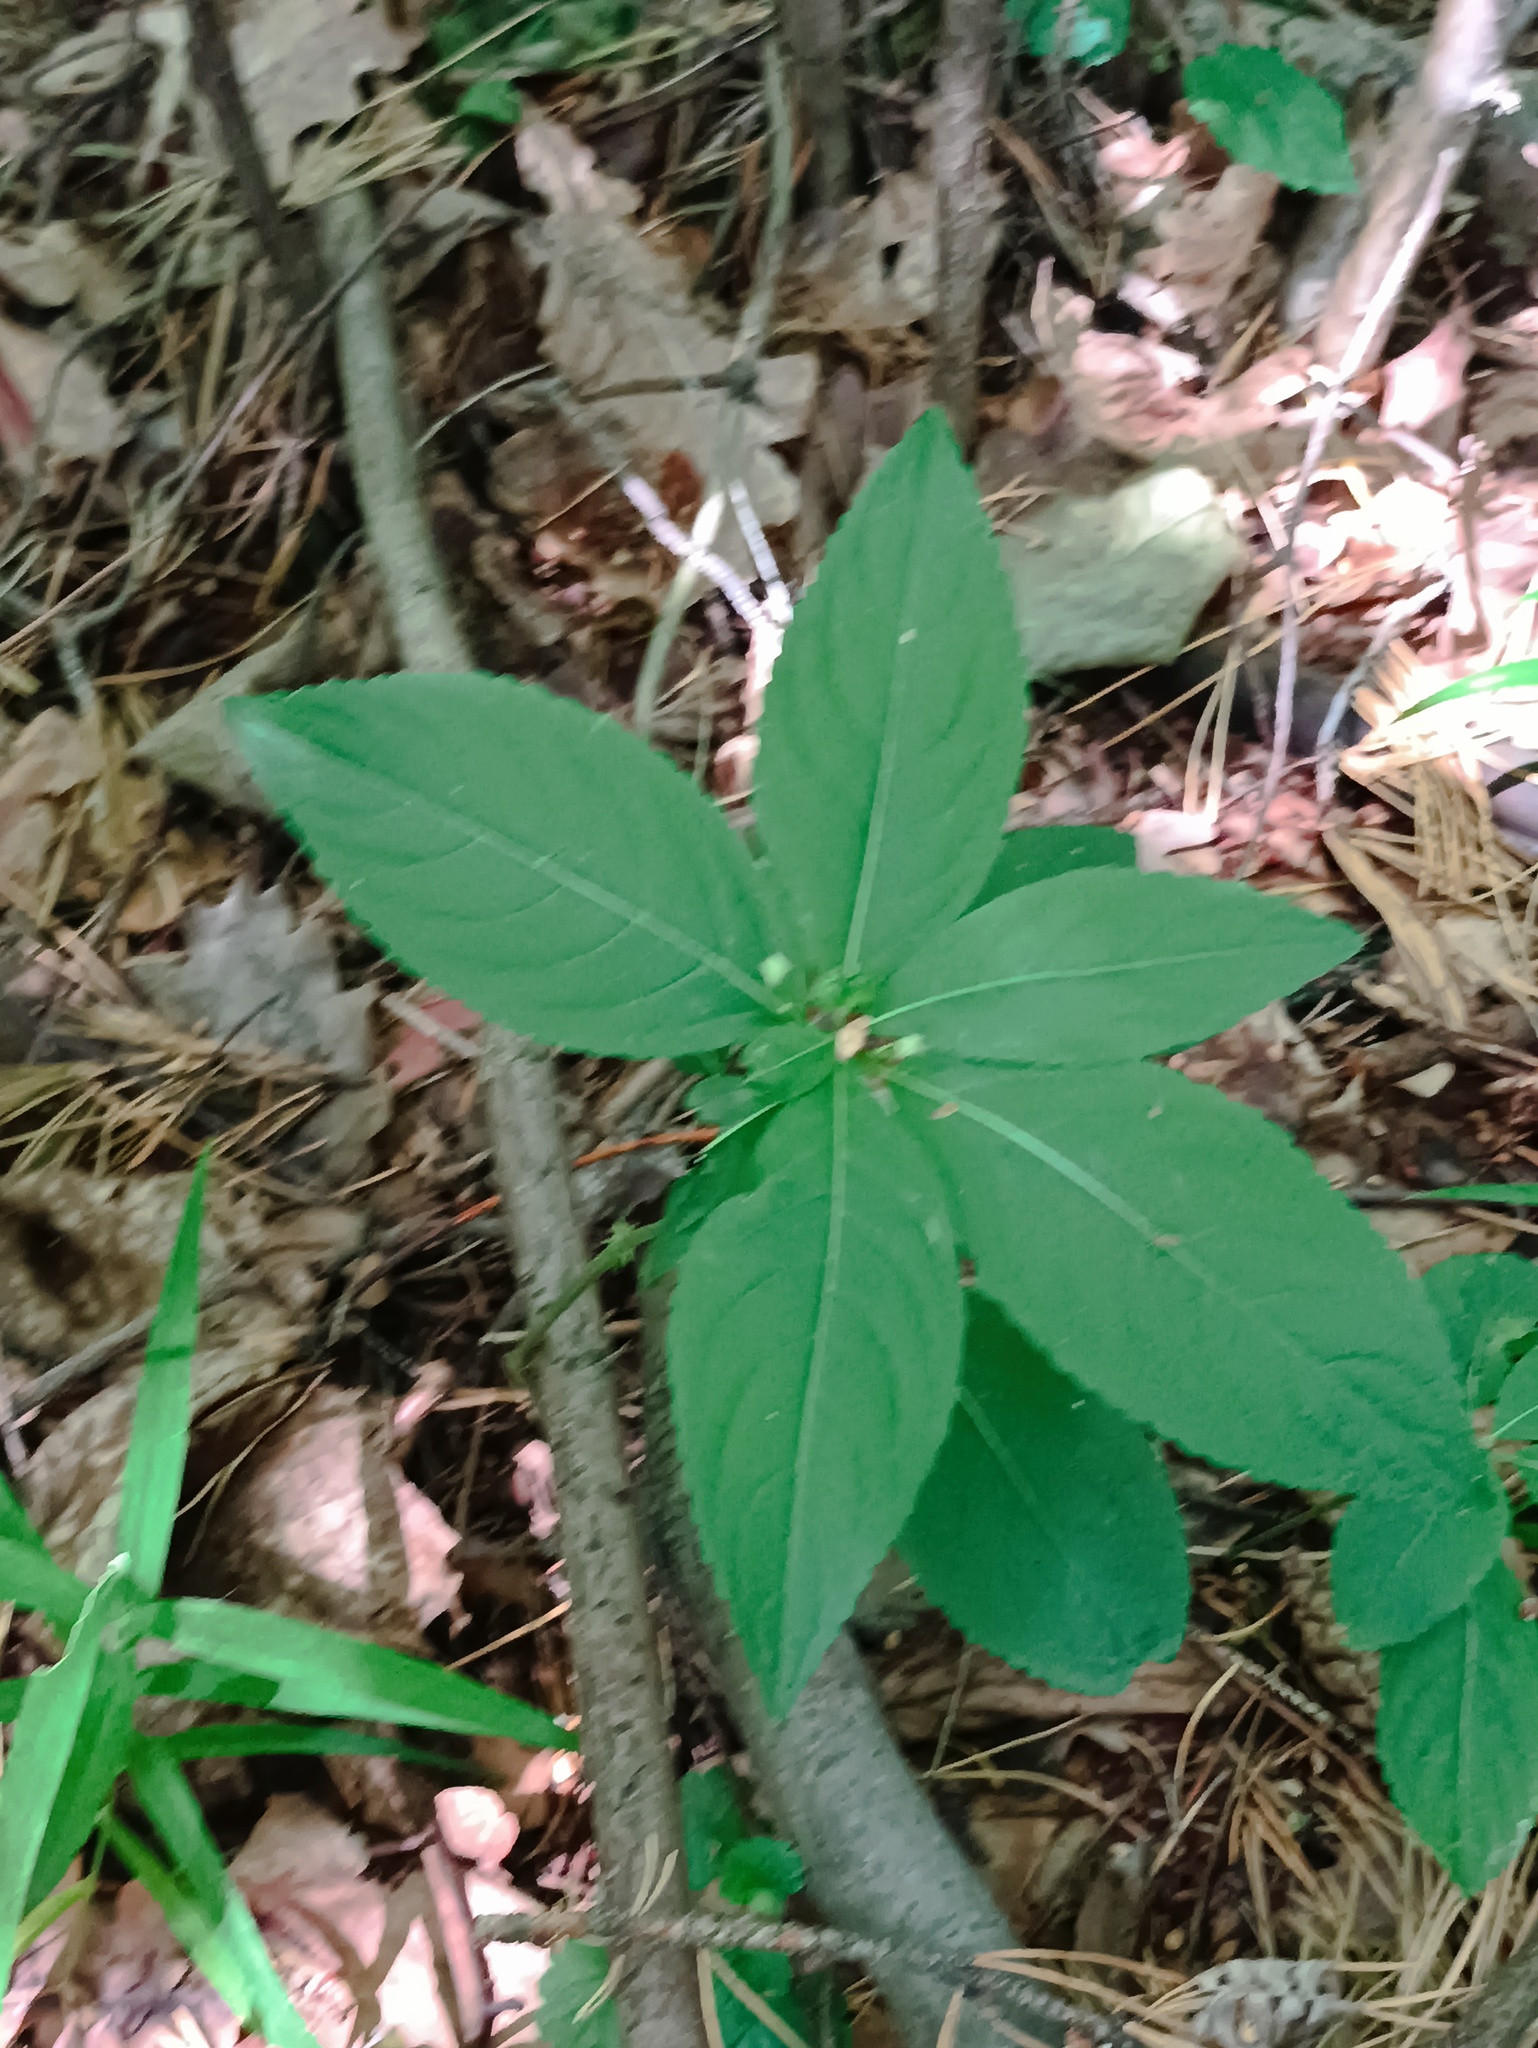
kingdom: Plantae
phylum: Tracheophyta
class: Magnoliopsida
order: Malpighiales
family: Euphorbiaceae
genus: Mercurialis
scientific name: Mercurialis perennis
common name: Dog mercury
